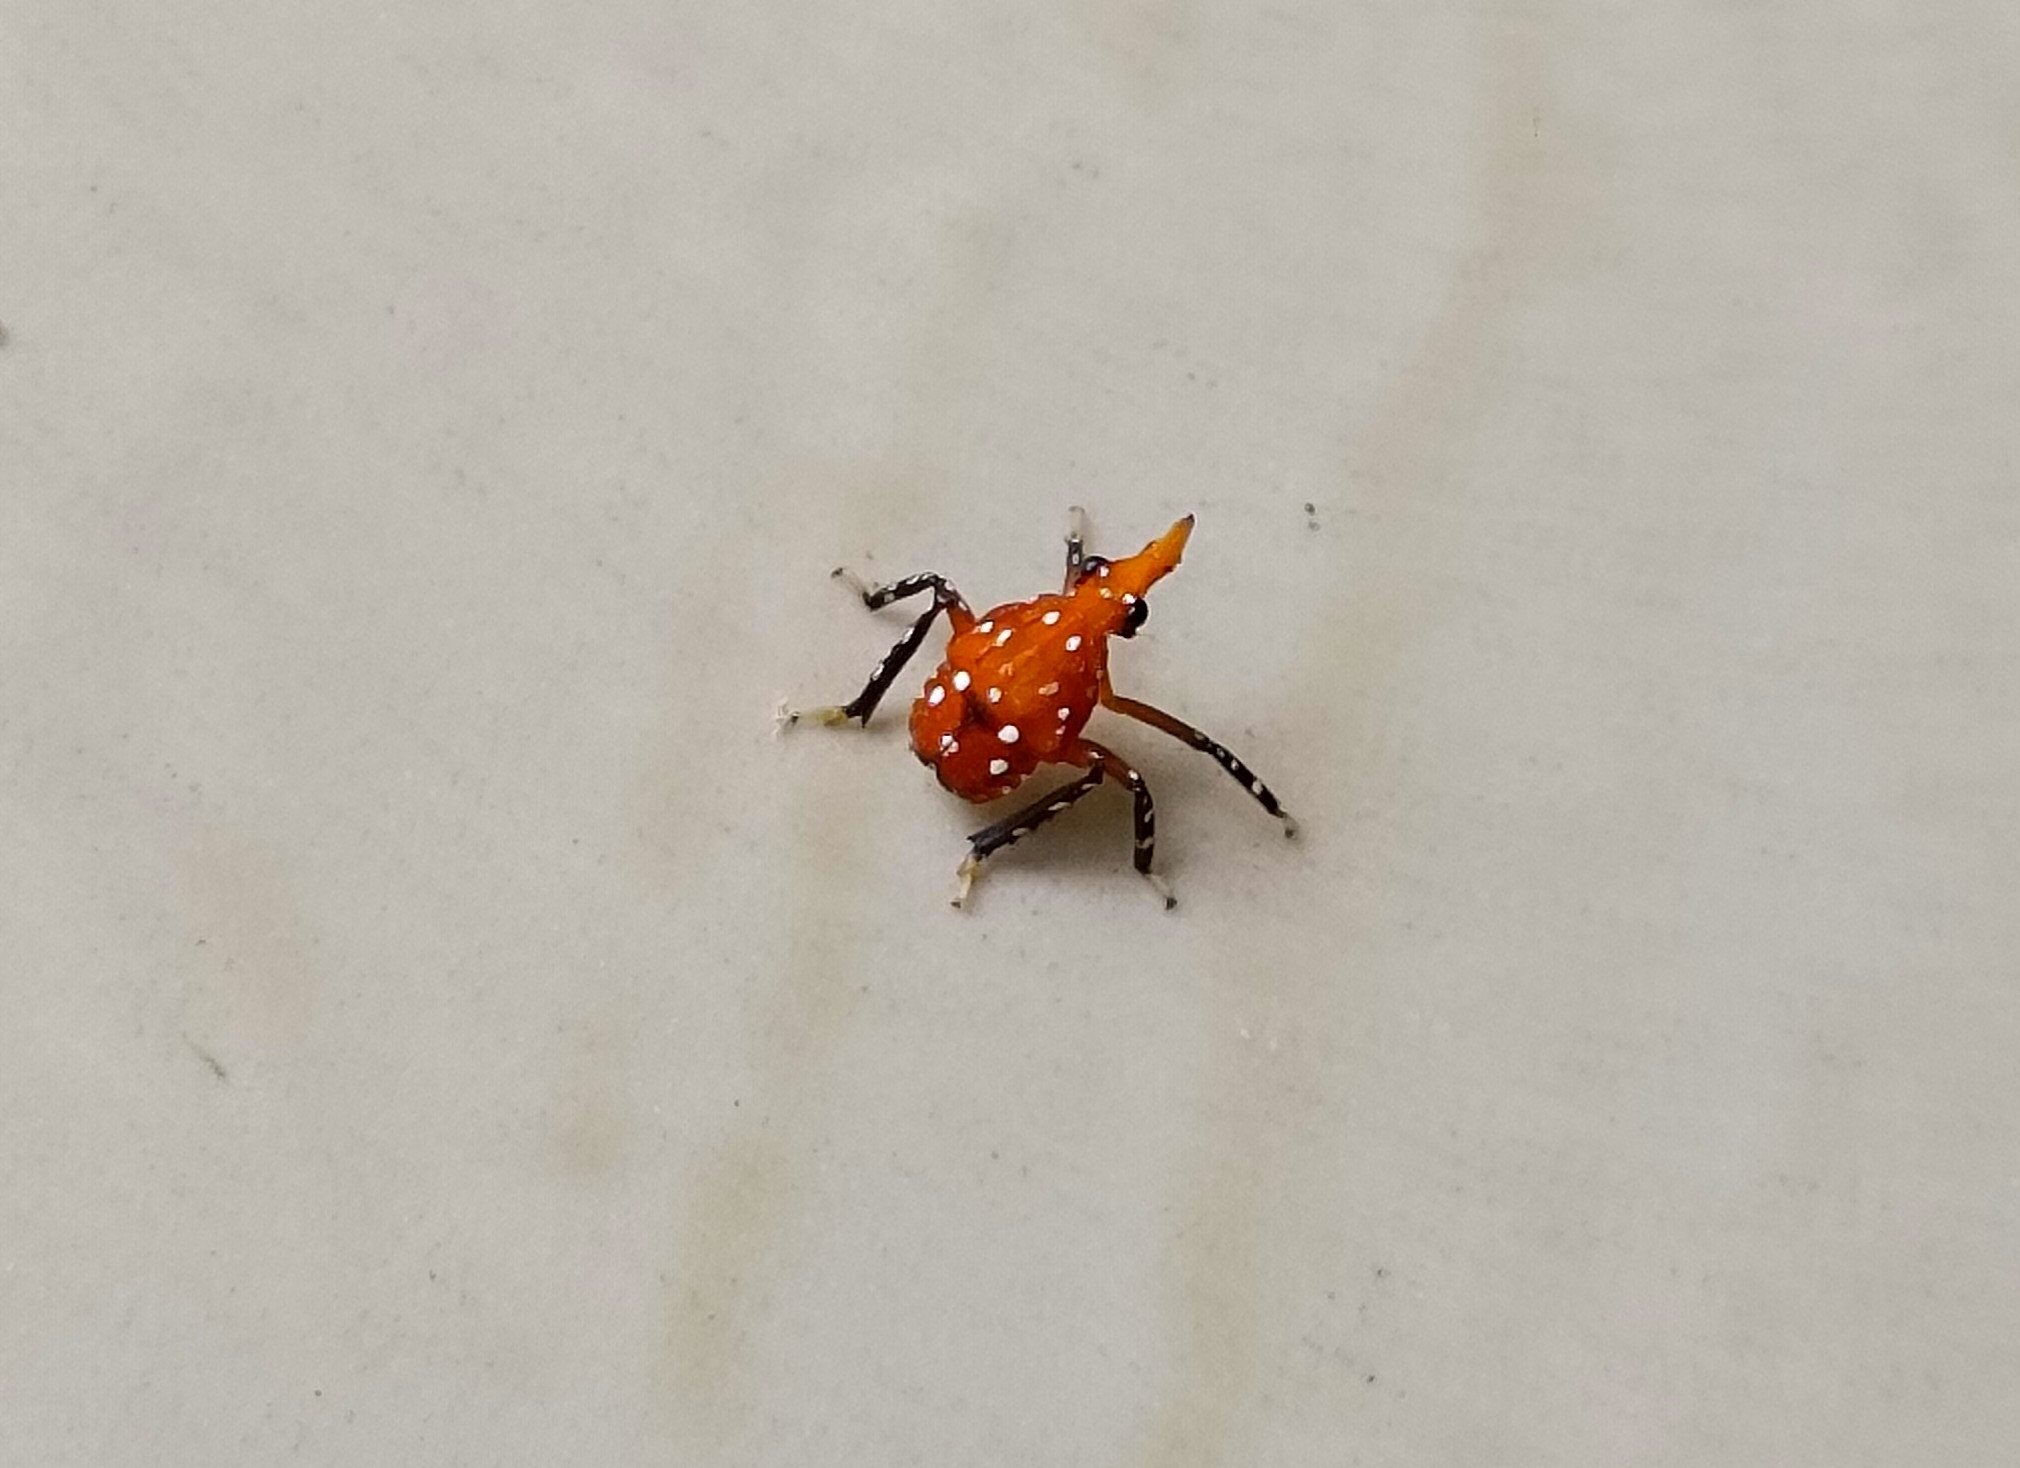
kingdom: Animalia
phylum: Arthropoda
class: Insecta
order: Hemiptera
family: Fulgoridae
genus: Kalidasa
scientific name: Kalidasa lanata
